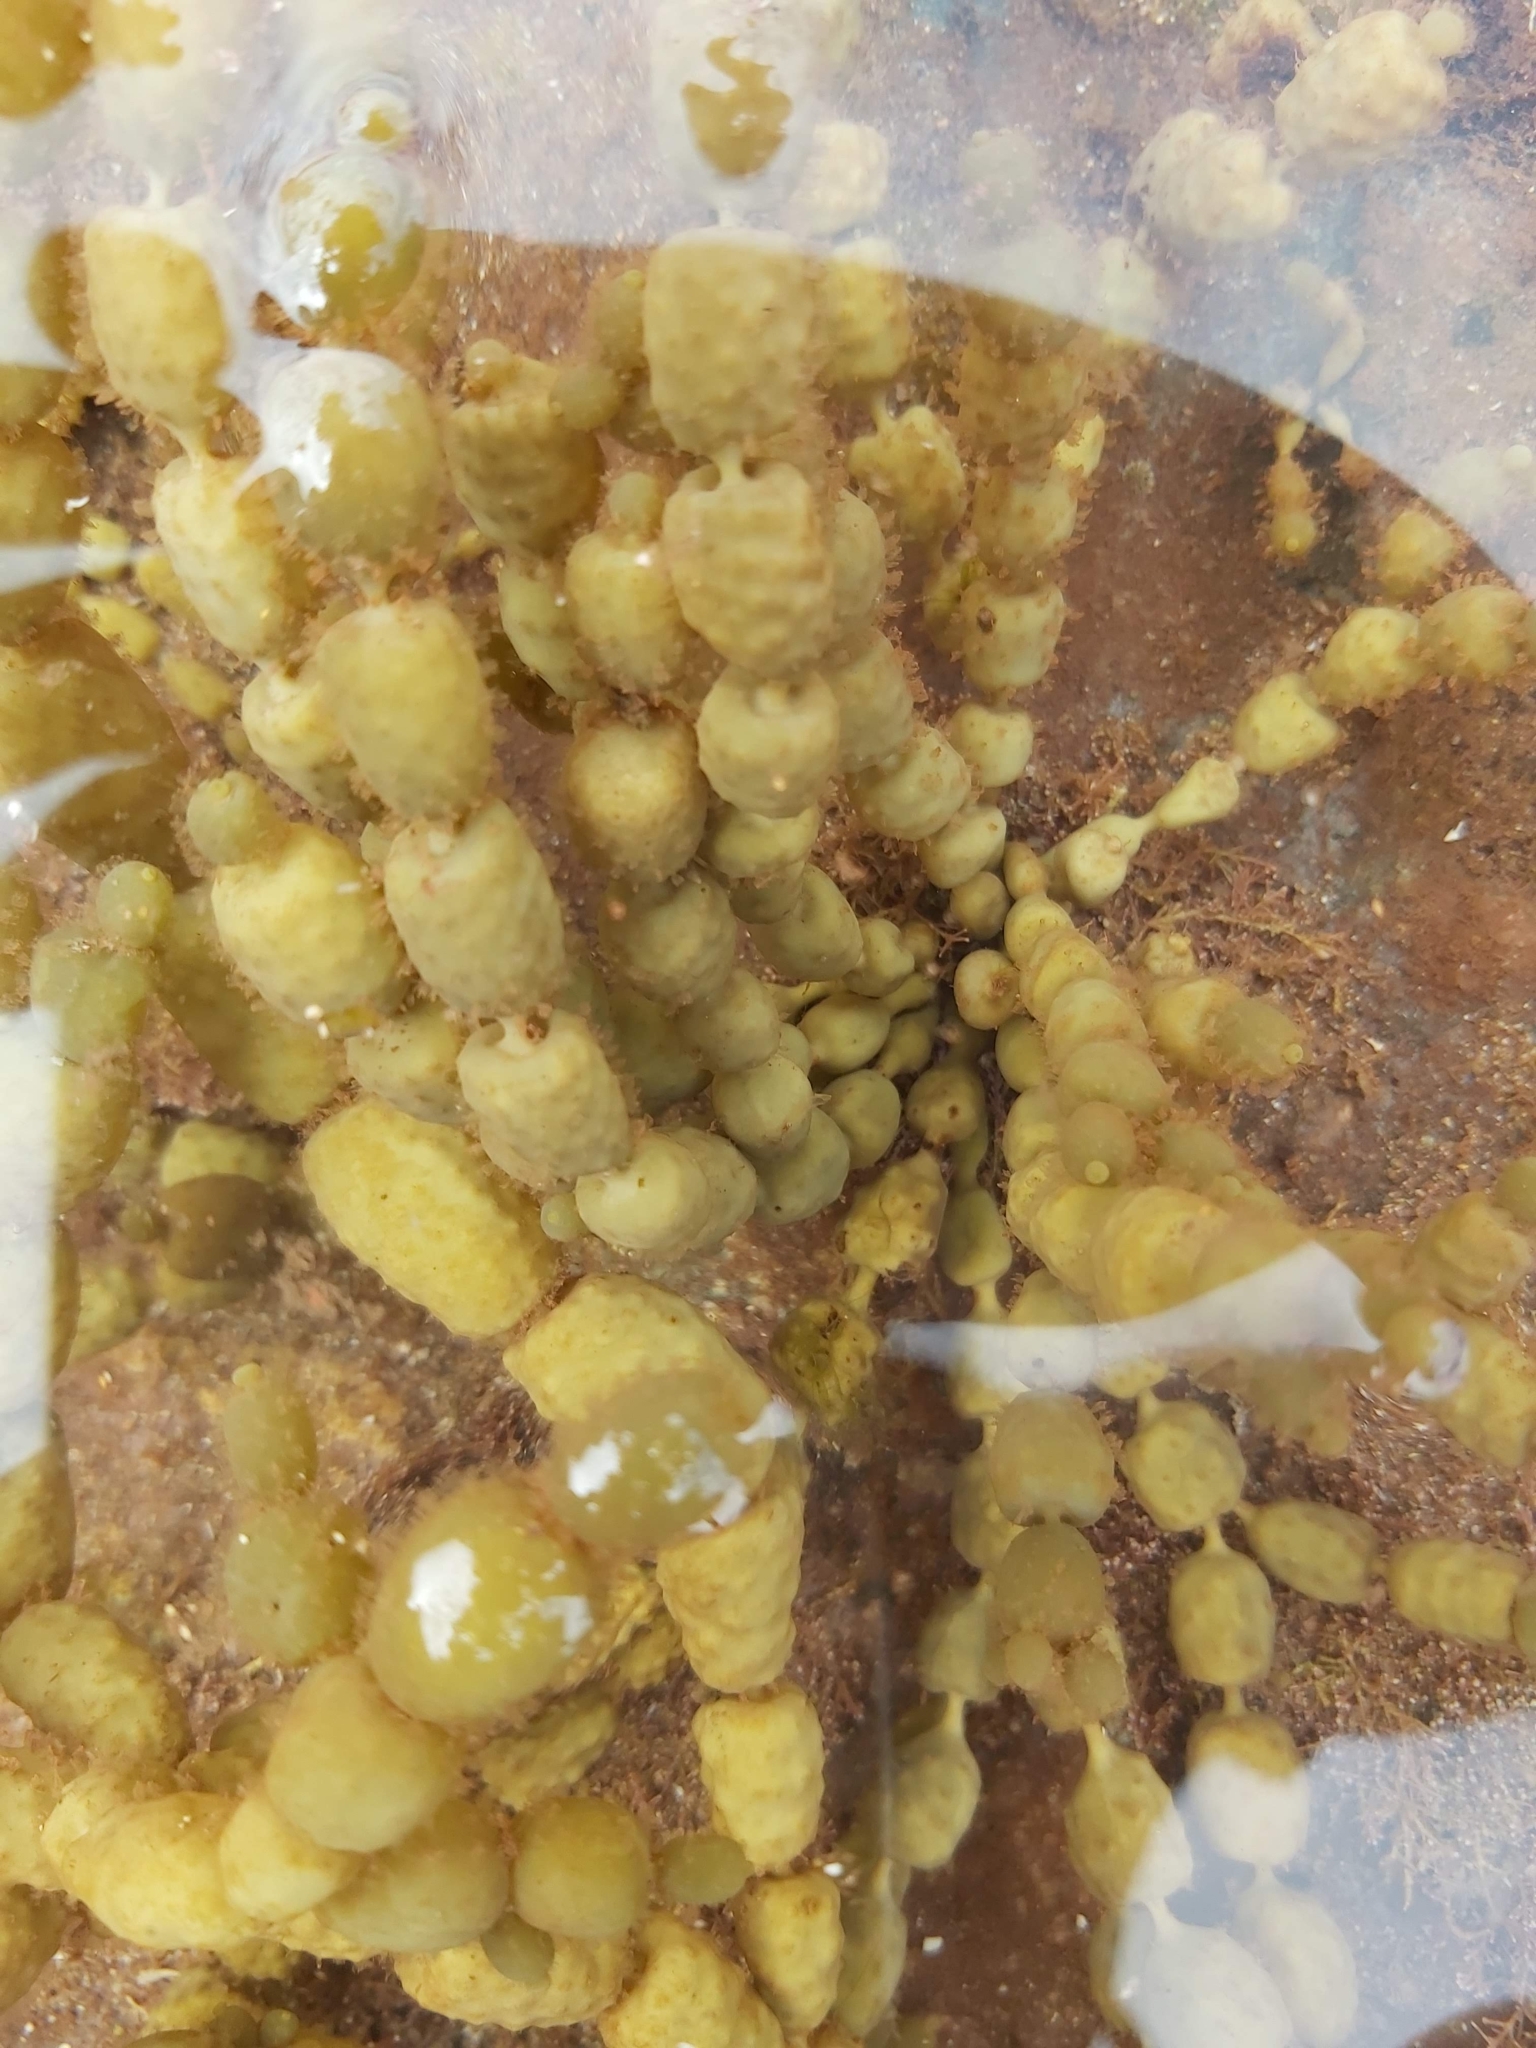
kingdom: Chromista
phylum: Ochrophyta
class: Phaeophyceae
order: Fucales
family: Hormosiraceae
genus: Hormosira
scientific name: Hormosira banksii
